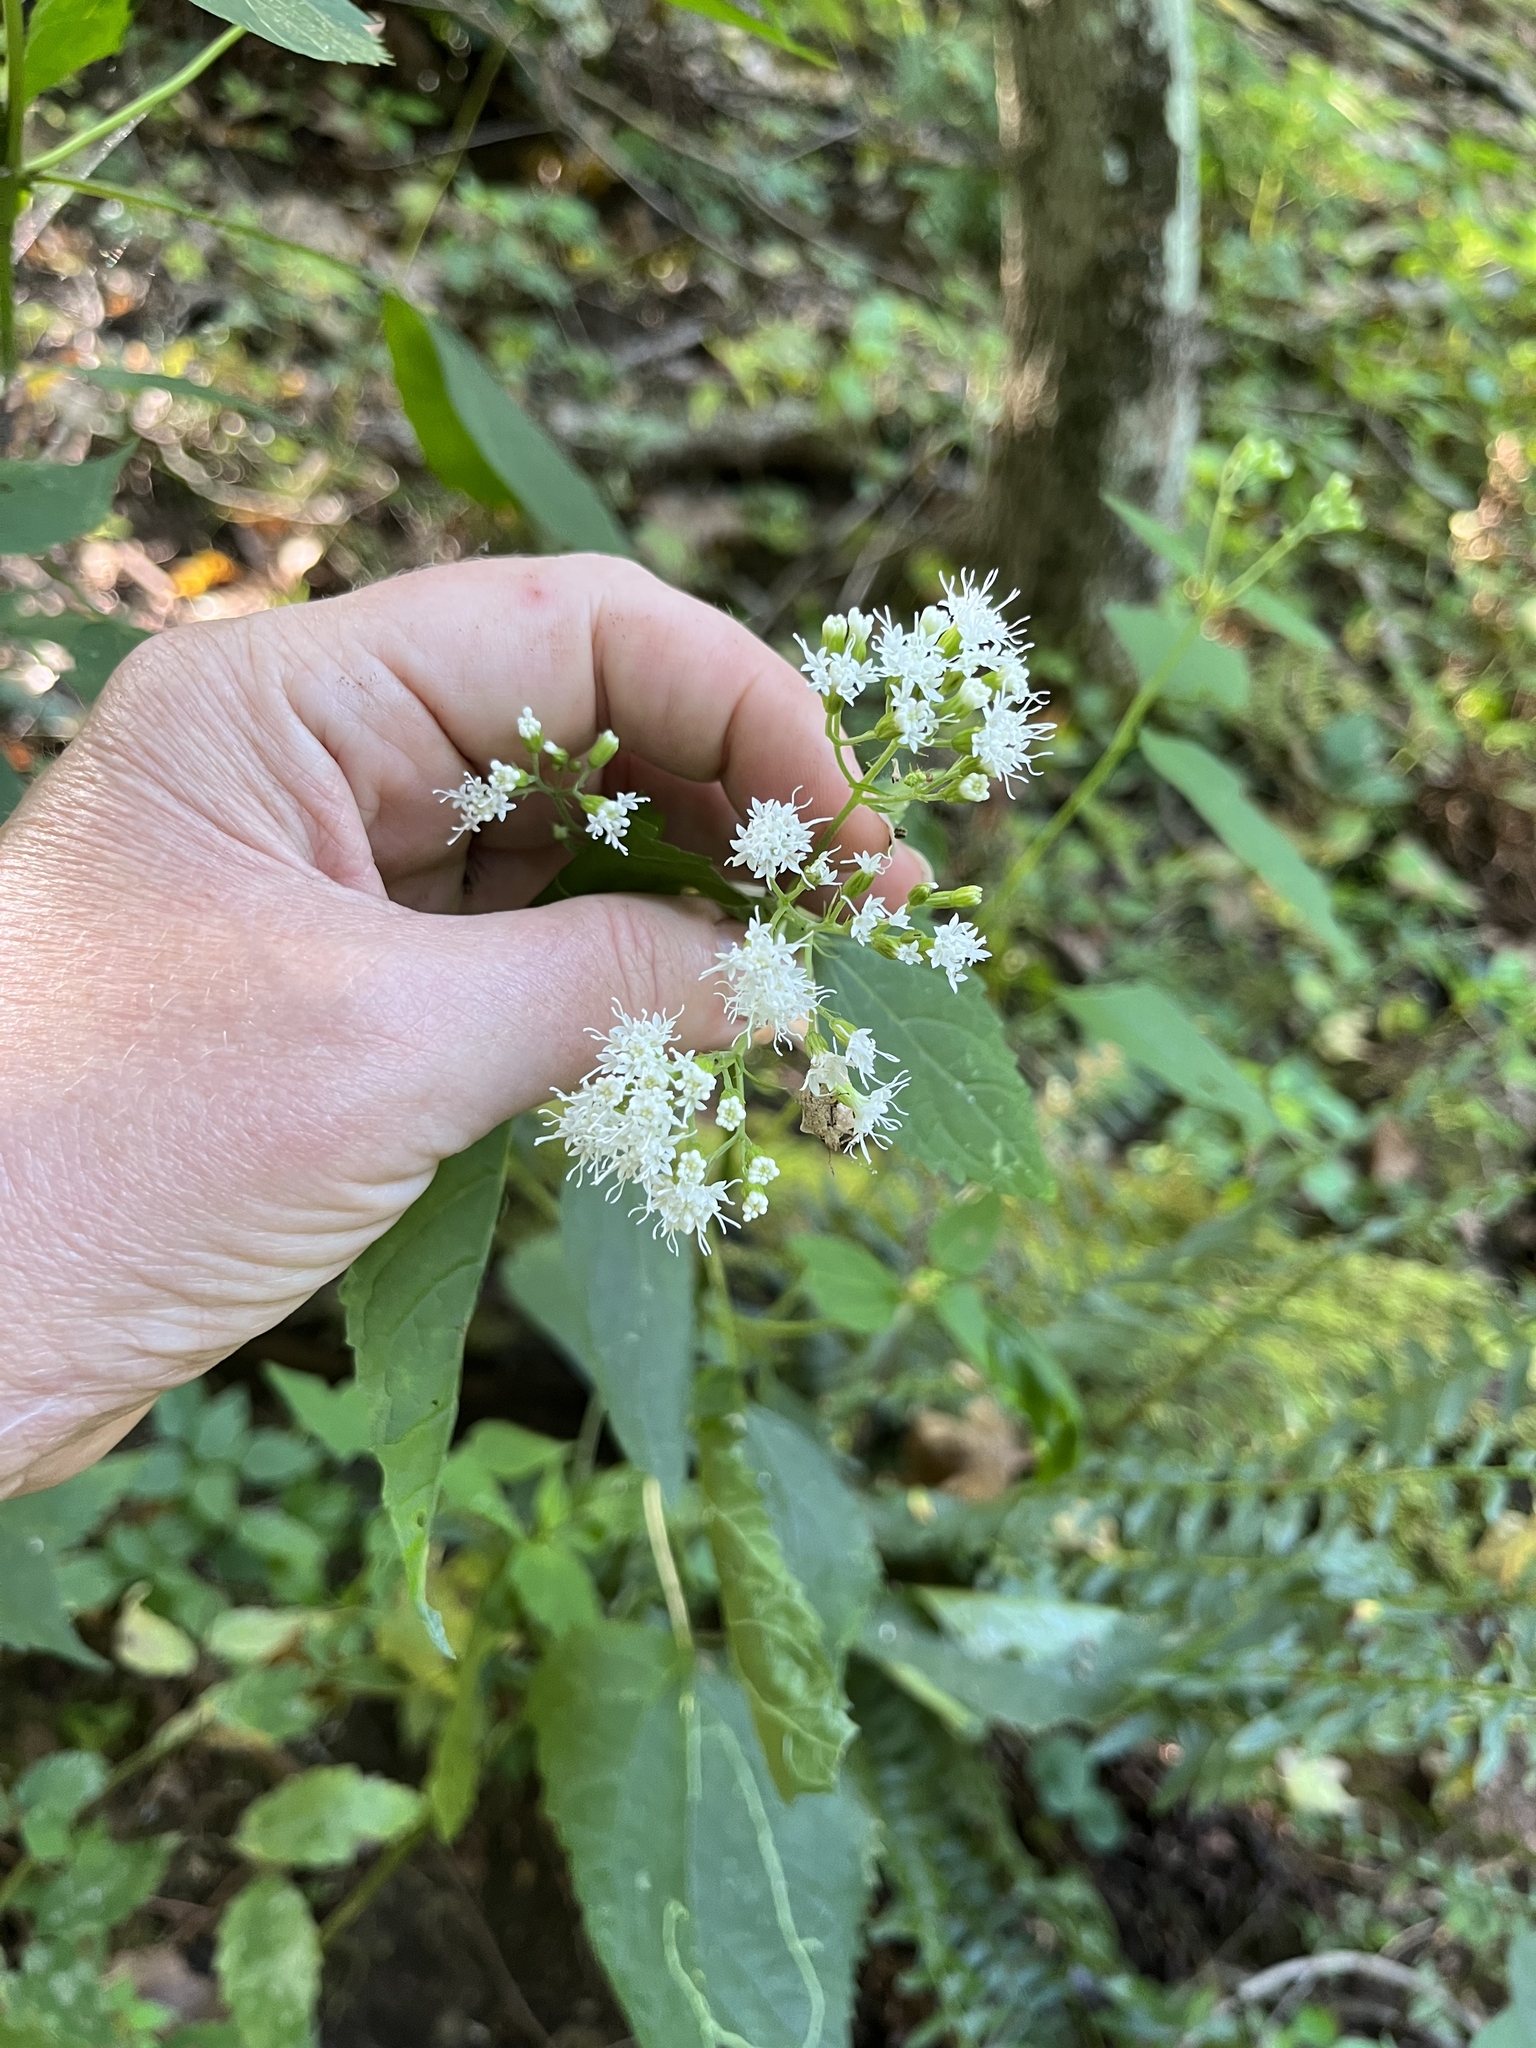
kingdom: Plantae
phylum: Tracheophyta
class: Magnoliopsida
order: Asterales
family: Asteraceae
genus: Ageratina
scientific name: Ageratina altissima
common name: White snakeroot
